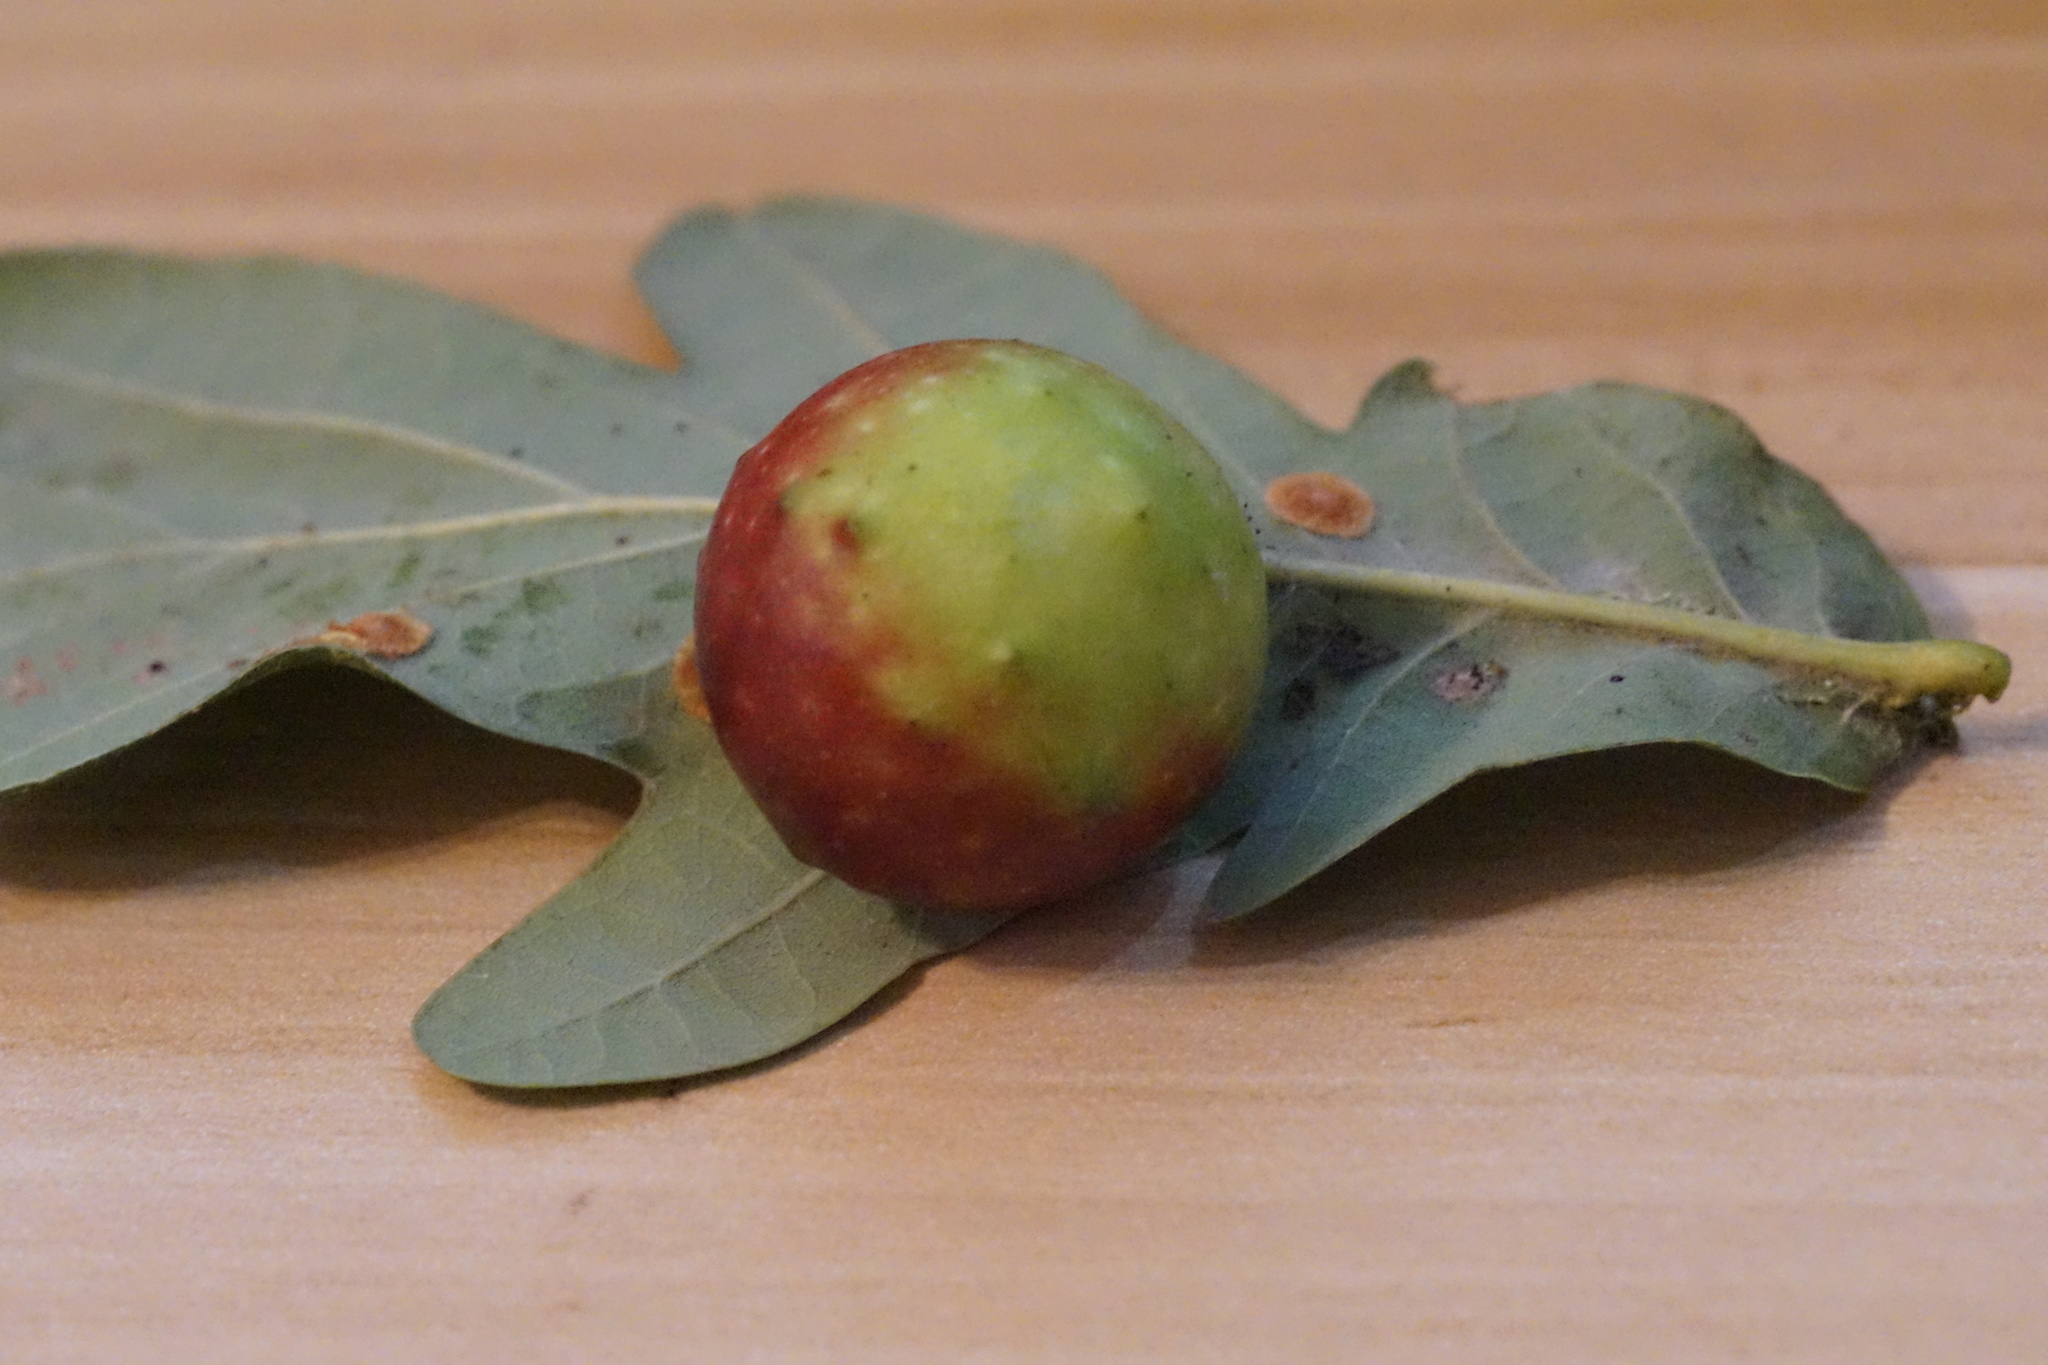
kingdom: Animalia
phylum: Arthropoda
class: Insecta
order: Hymenoptera
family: Cynipidae
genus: Cynips
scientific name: Cynips quercusfolii
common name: Cherry gall
